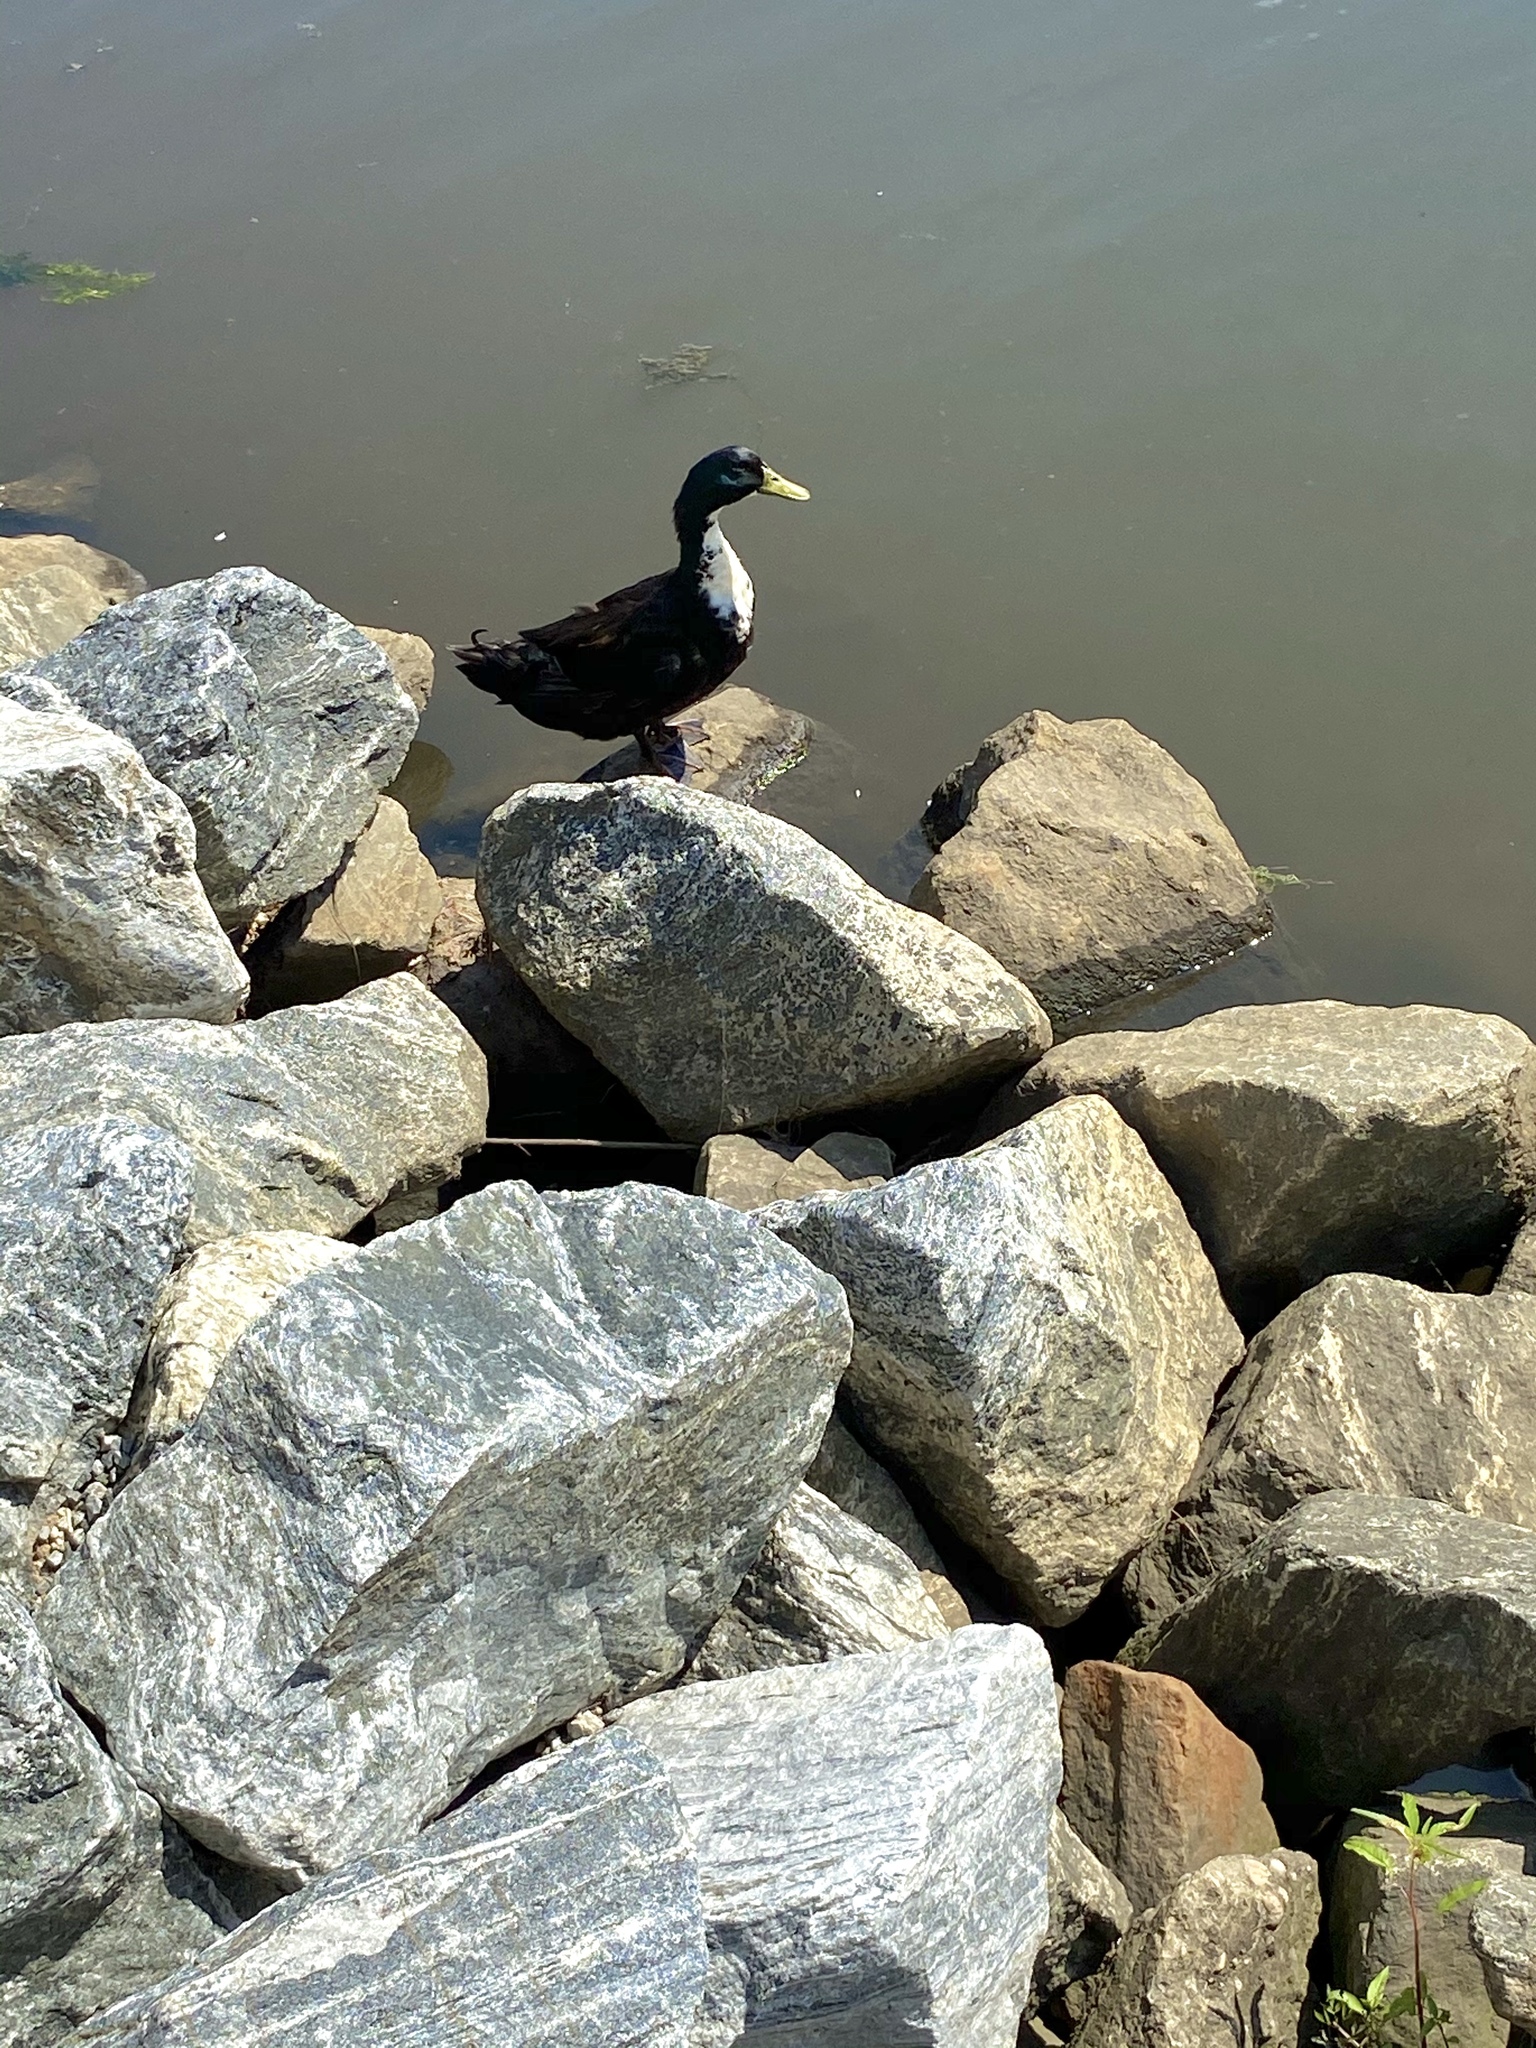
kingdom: Animalia
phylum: Chordata
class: Aves
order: Anseriformes
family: Anatidae
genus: Anas
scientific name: Anas platyrhynchos
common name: Mallard
